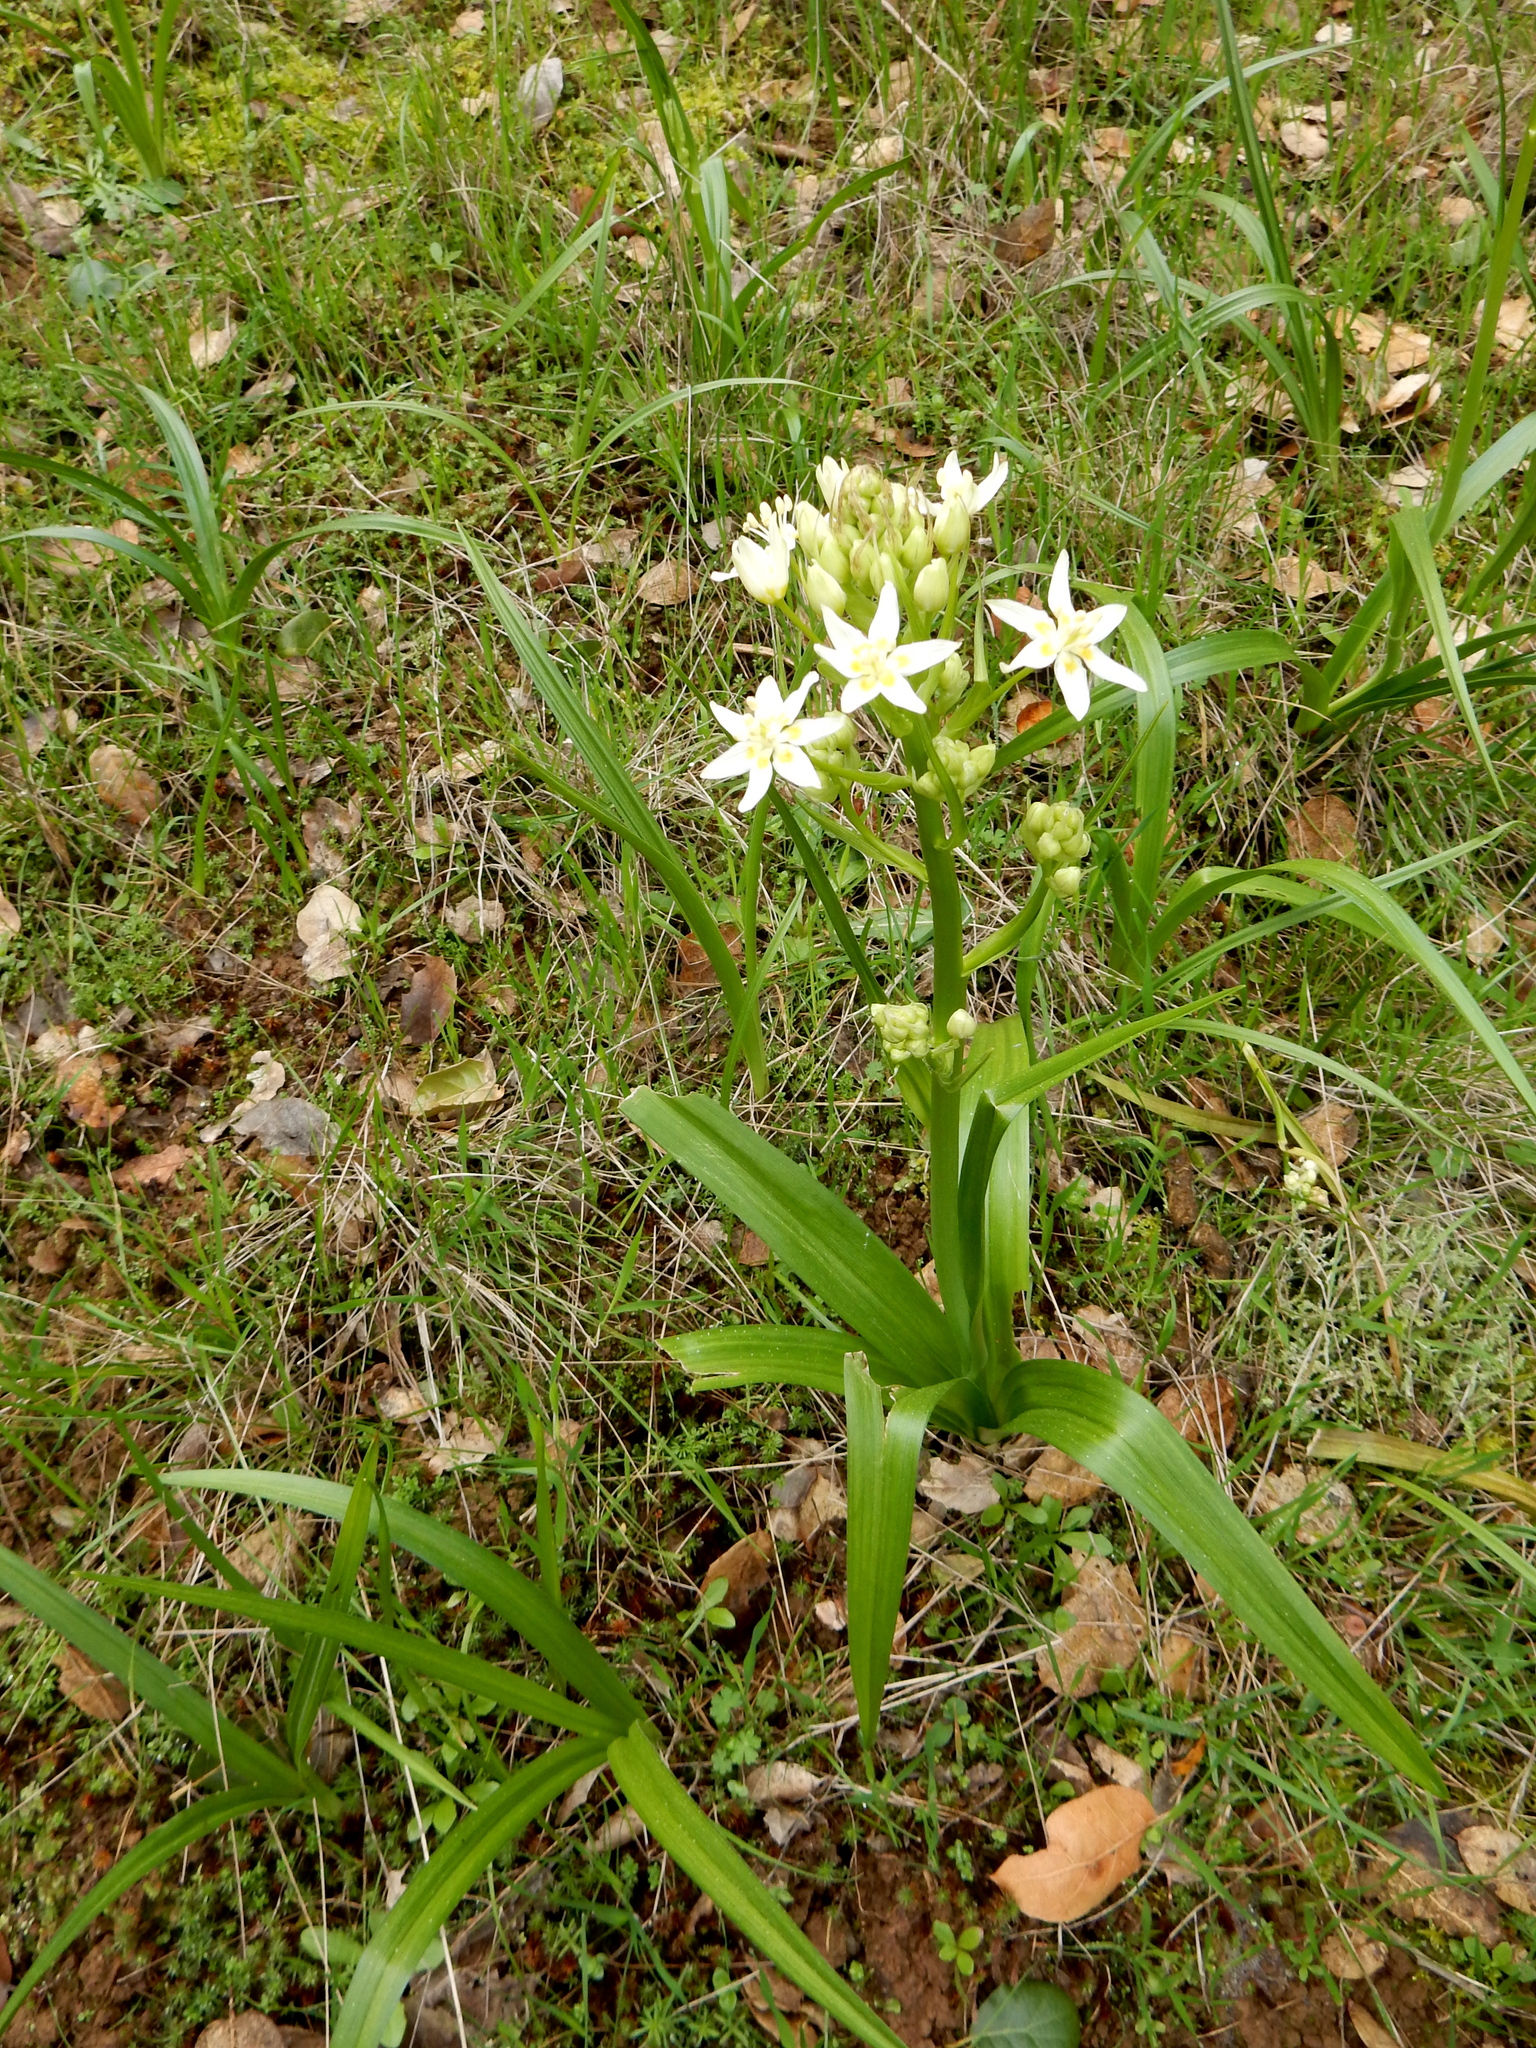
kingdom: Plantae
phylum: Tracheophyta
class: Liliopsida
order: Liliales
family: Melanthiaceae
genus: Toxicoscordion
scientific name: Toxicoscordion fremontii
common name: Fremont's death camas
